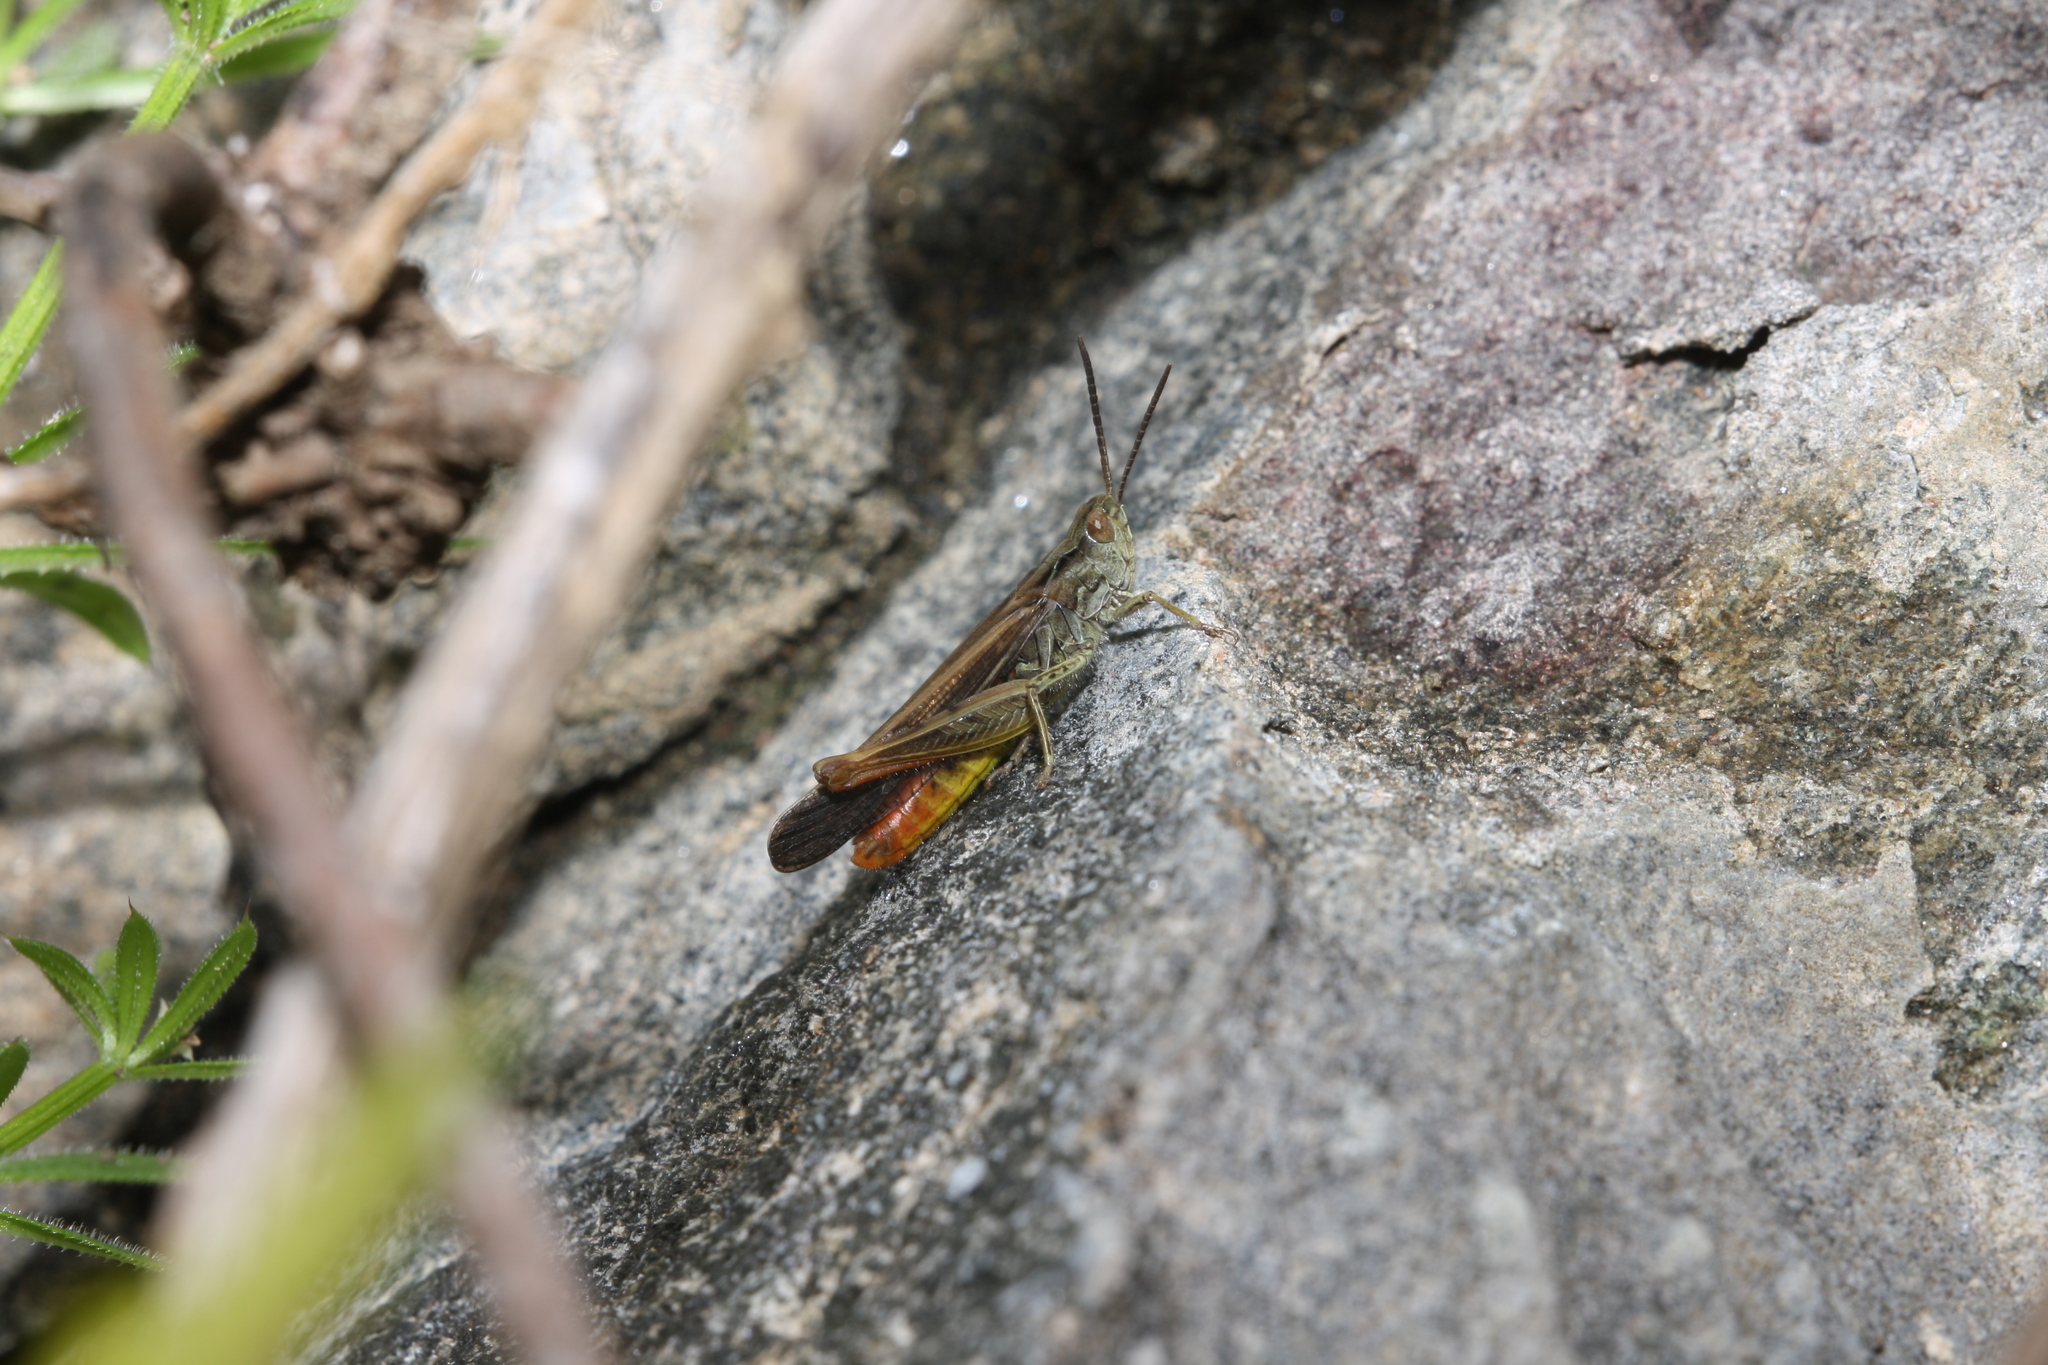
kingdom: Animalia
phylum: Arthropoda
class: Insecta
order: Orthoptera
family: Acrididae
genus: Chorthippus
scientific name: Chorthippus brunneus
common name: Field grasshopper
